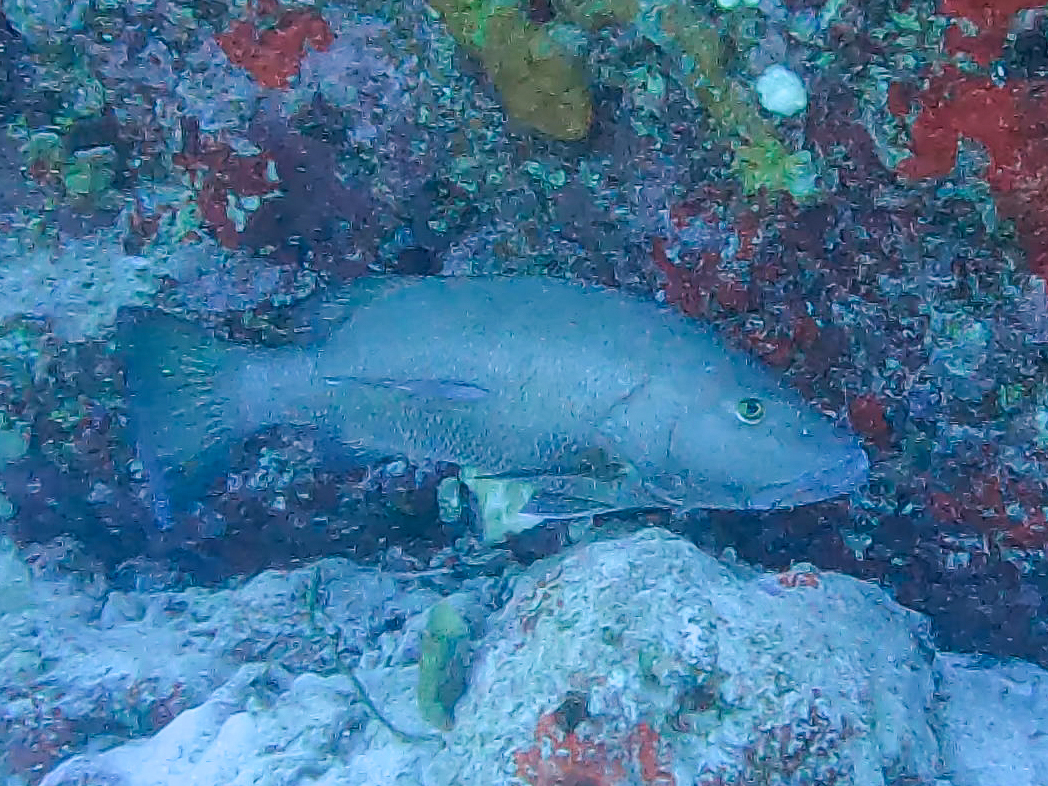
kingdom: Animalia
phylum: Chordata
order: Perciformes
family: Lutjanidae
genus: Lutjanus
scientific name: Lutjanus cyanopterus
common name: Cubera snapper
